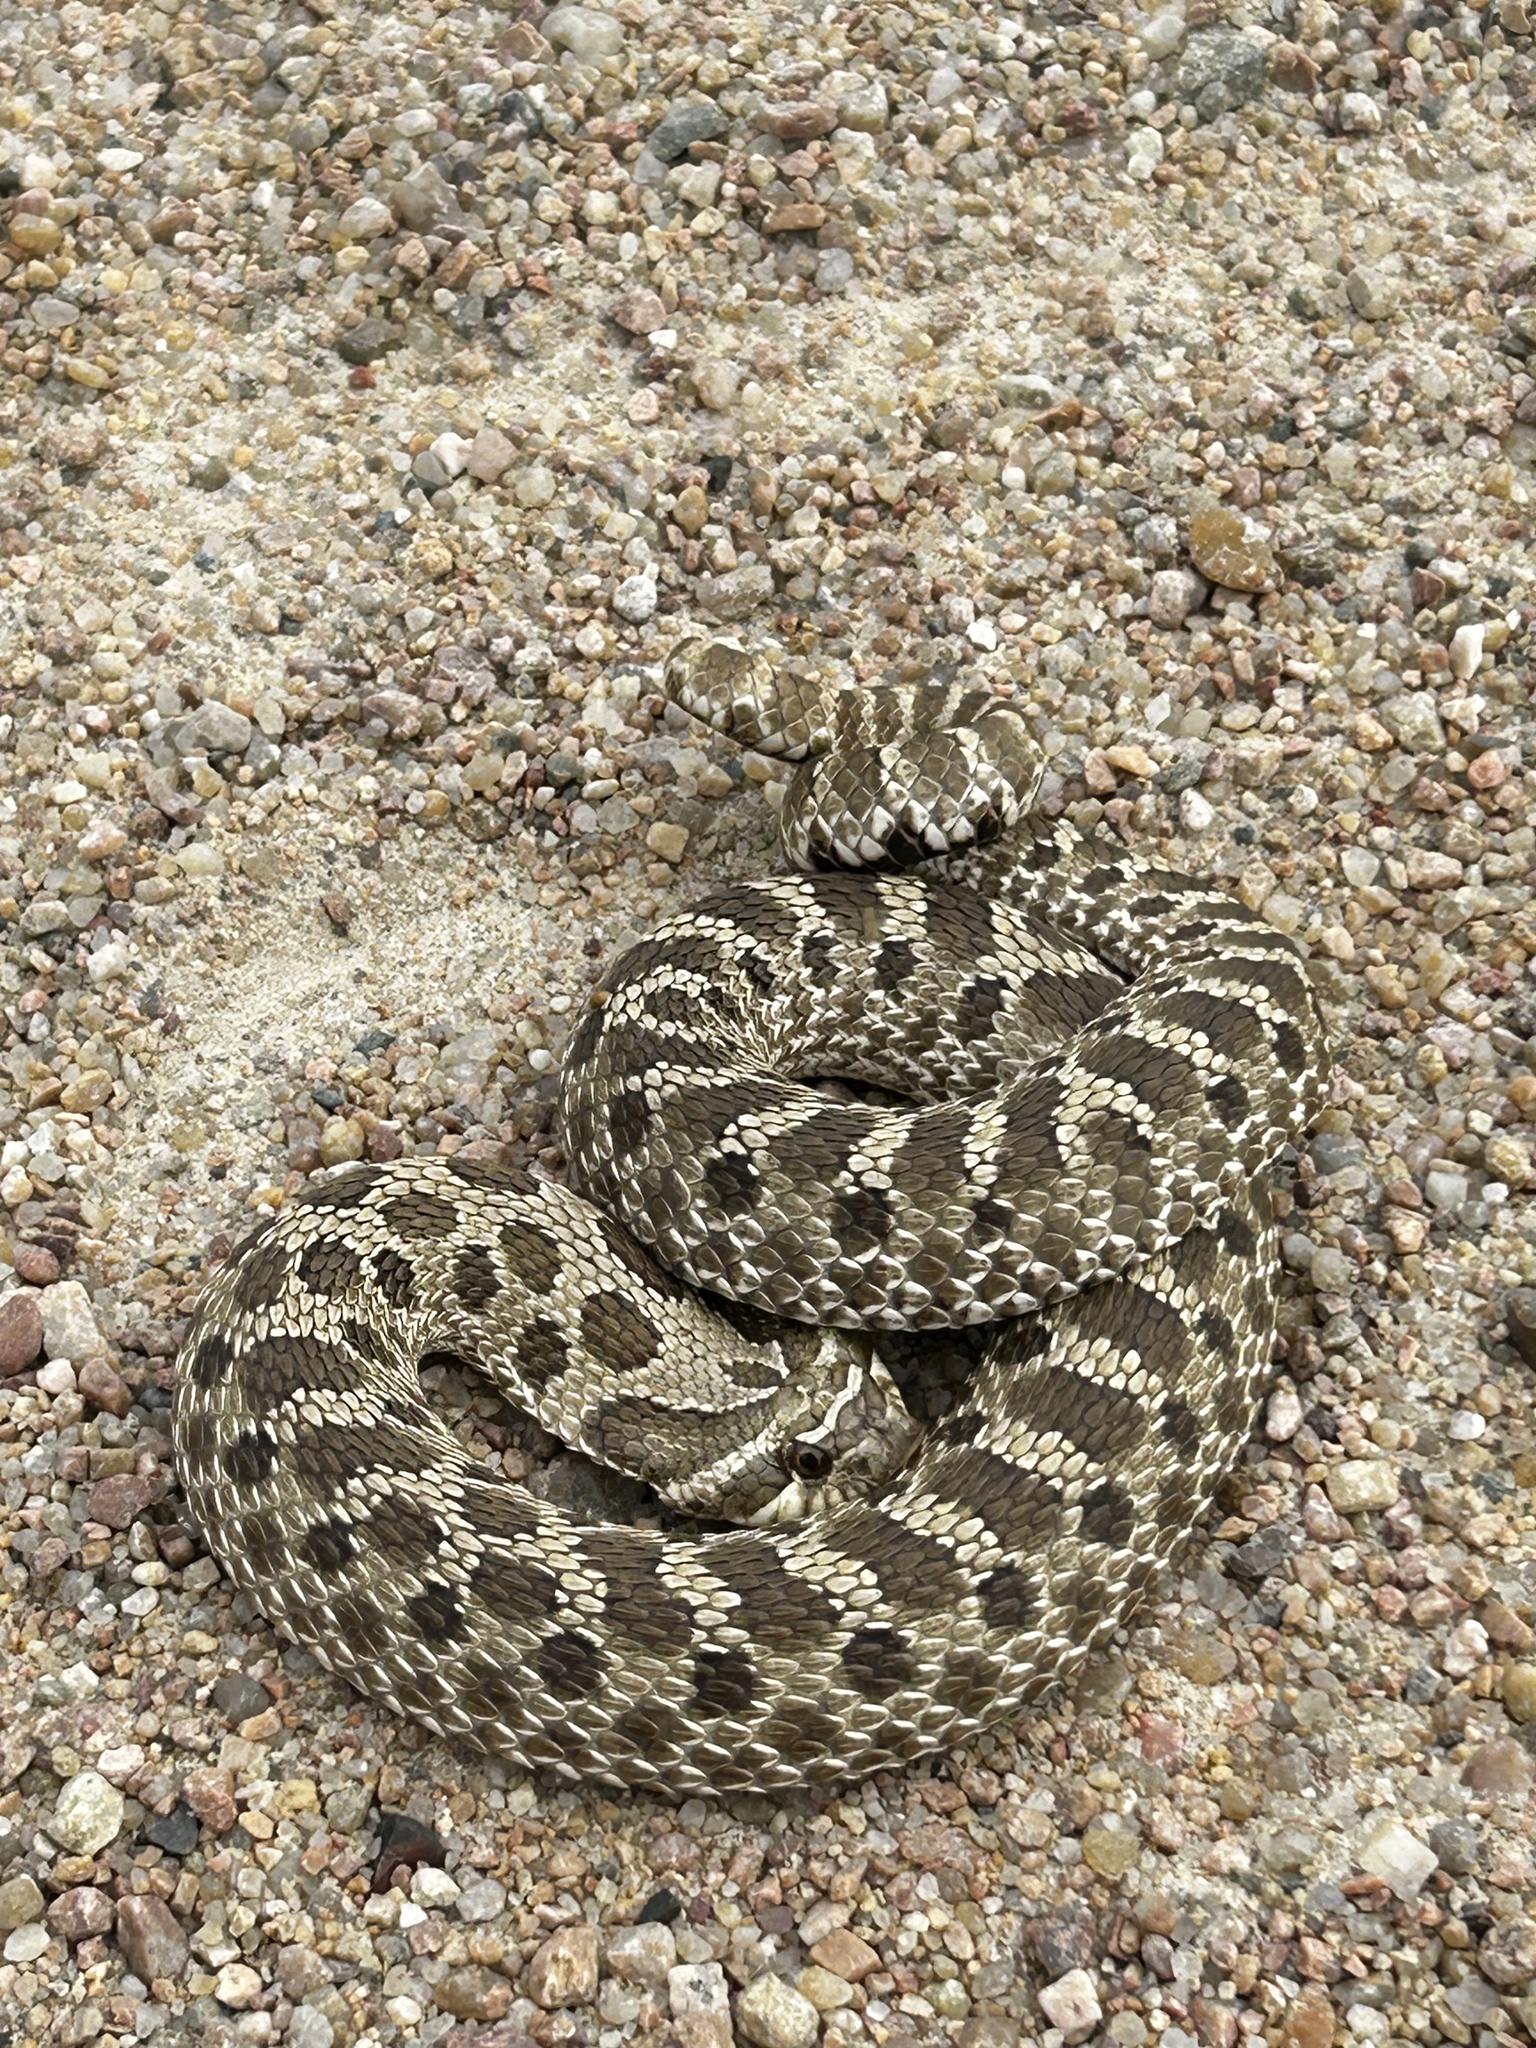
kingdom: Animalia
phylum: Chordata
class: Squamata
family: Colubridae
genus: Heterodon
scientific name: Heterodon nasicus
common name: Western hognose snake
